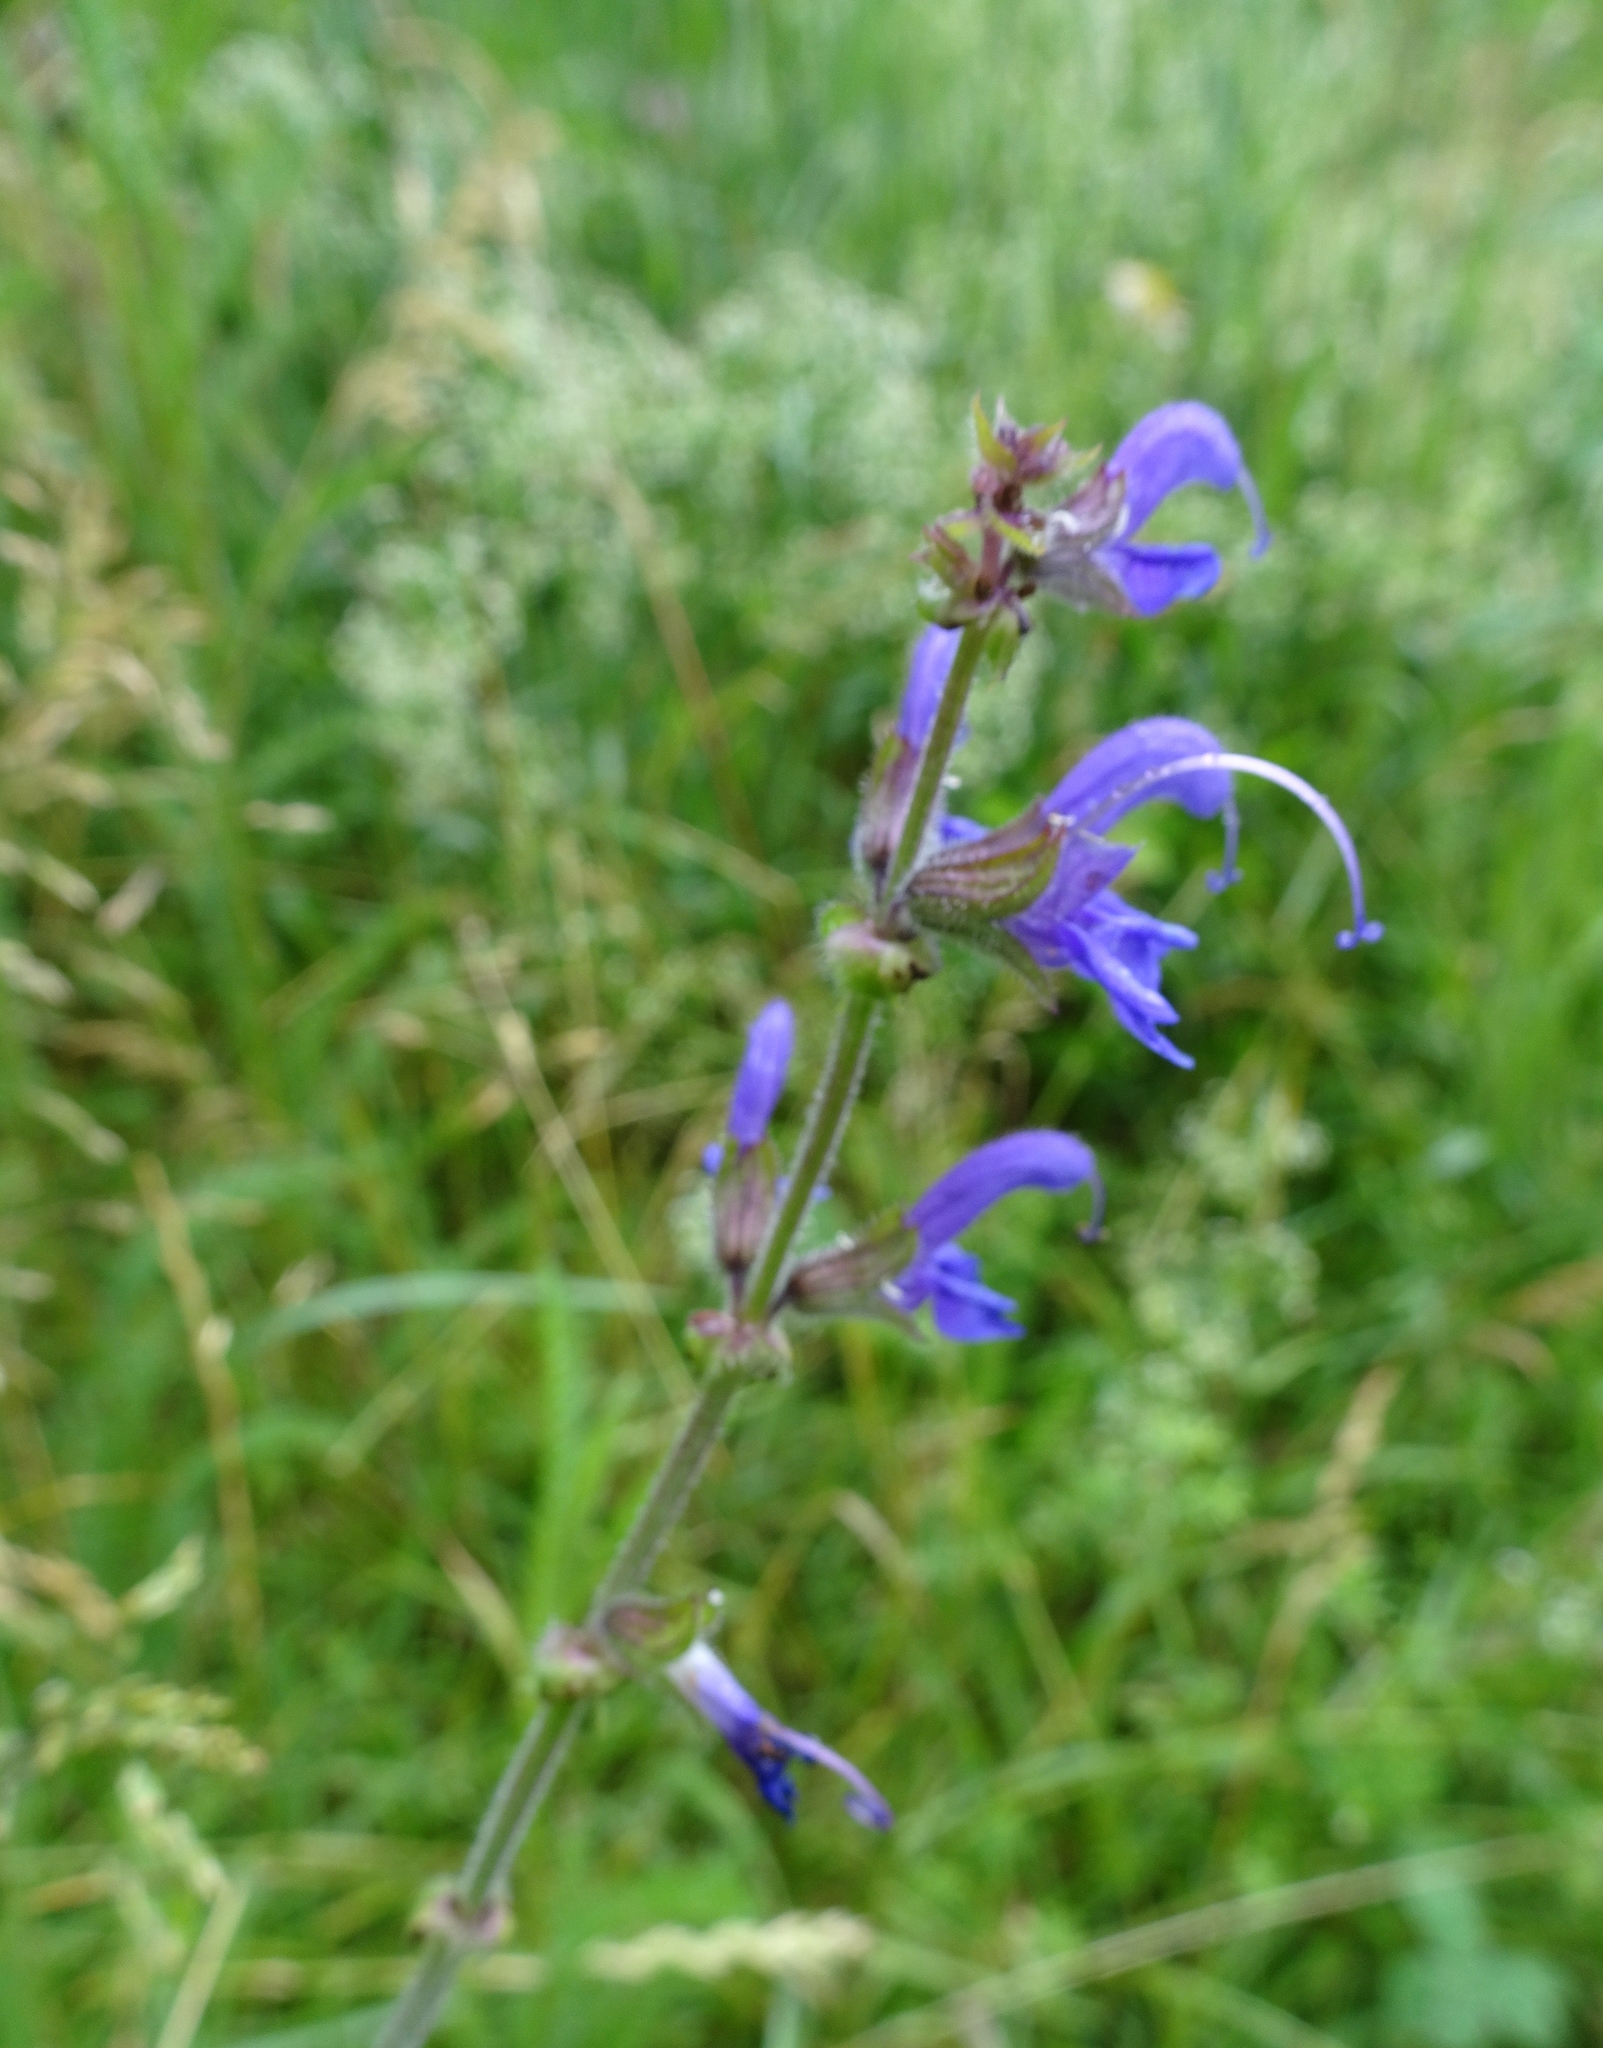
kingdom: Plantae
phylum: Tracheophyta
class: Magnoliopsida
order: Lamiales
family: Lamiaceae
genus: Salvia
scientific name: Salvia pratensis
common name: Meadow sage
